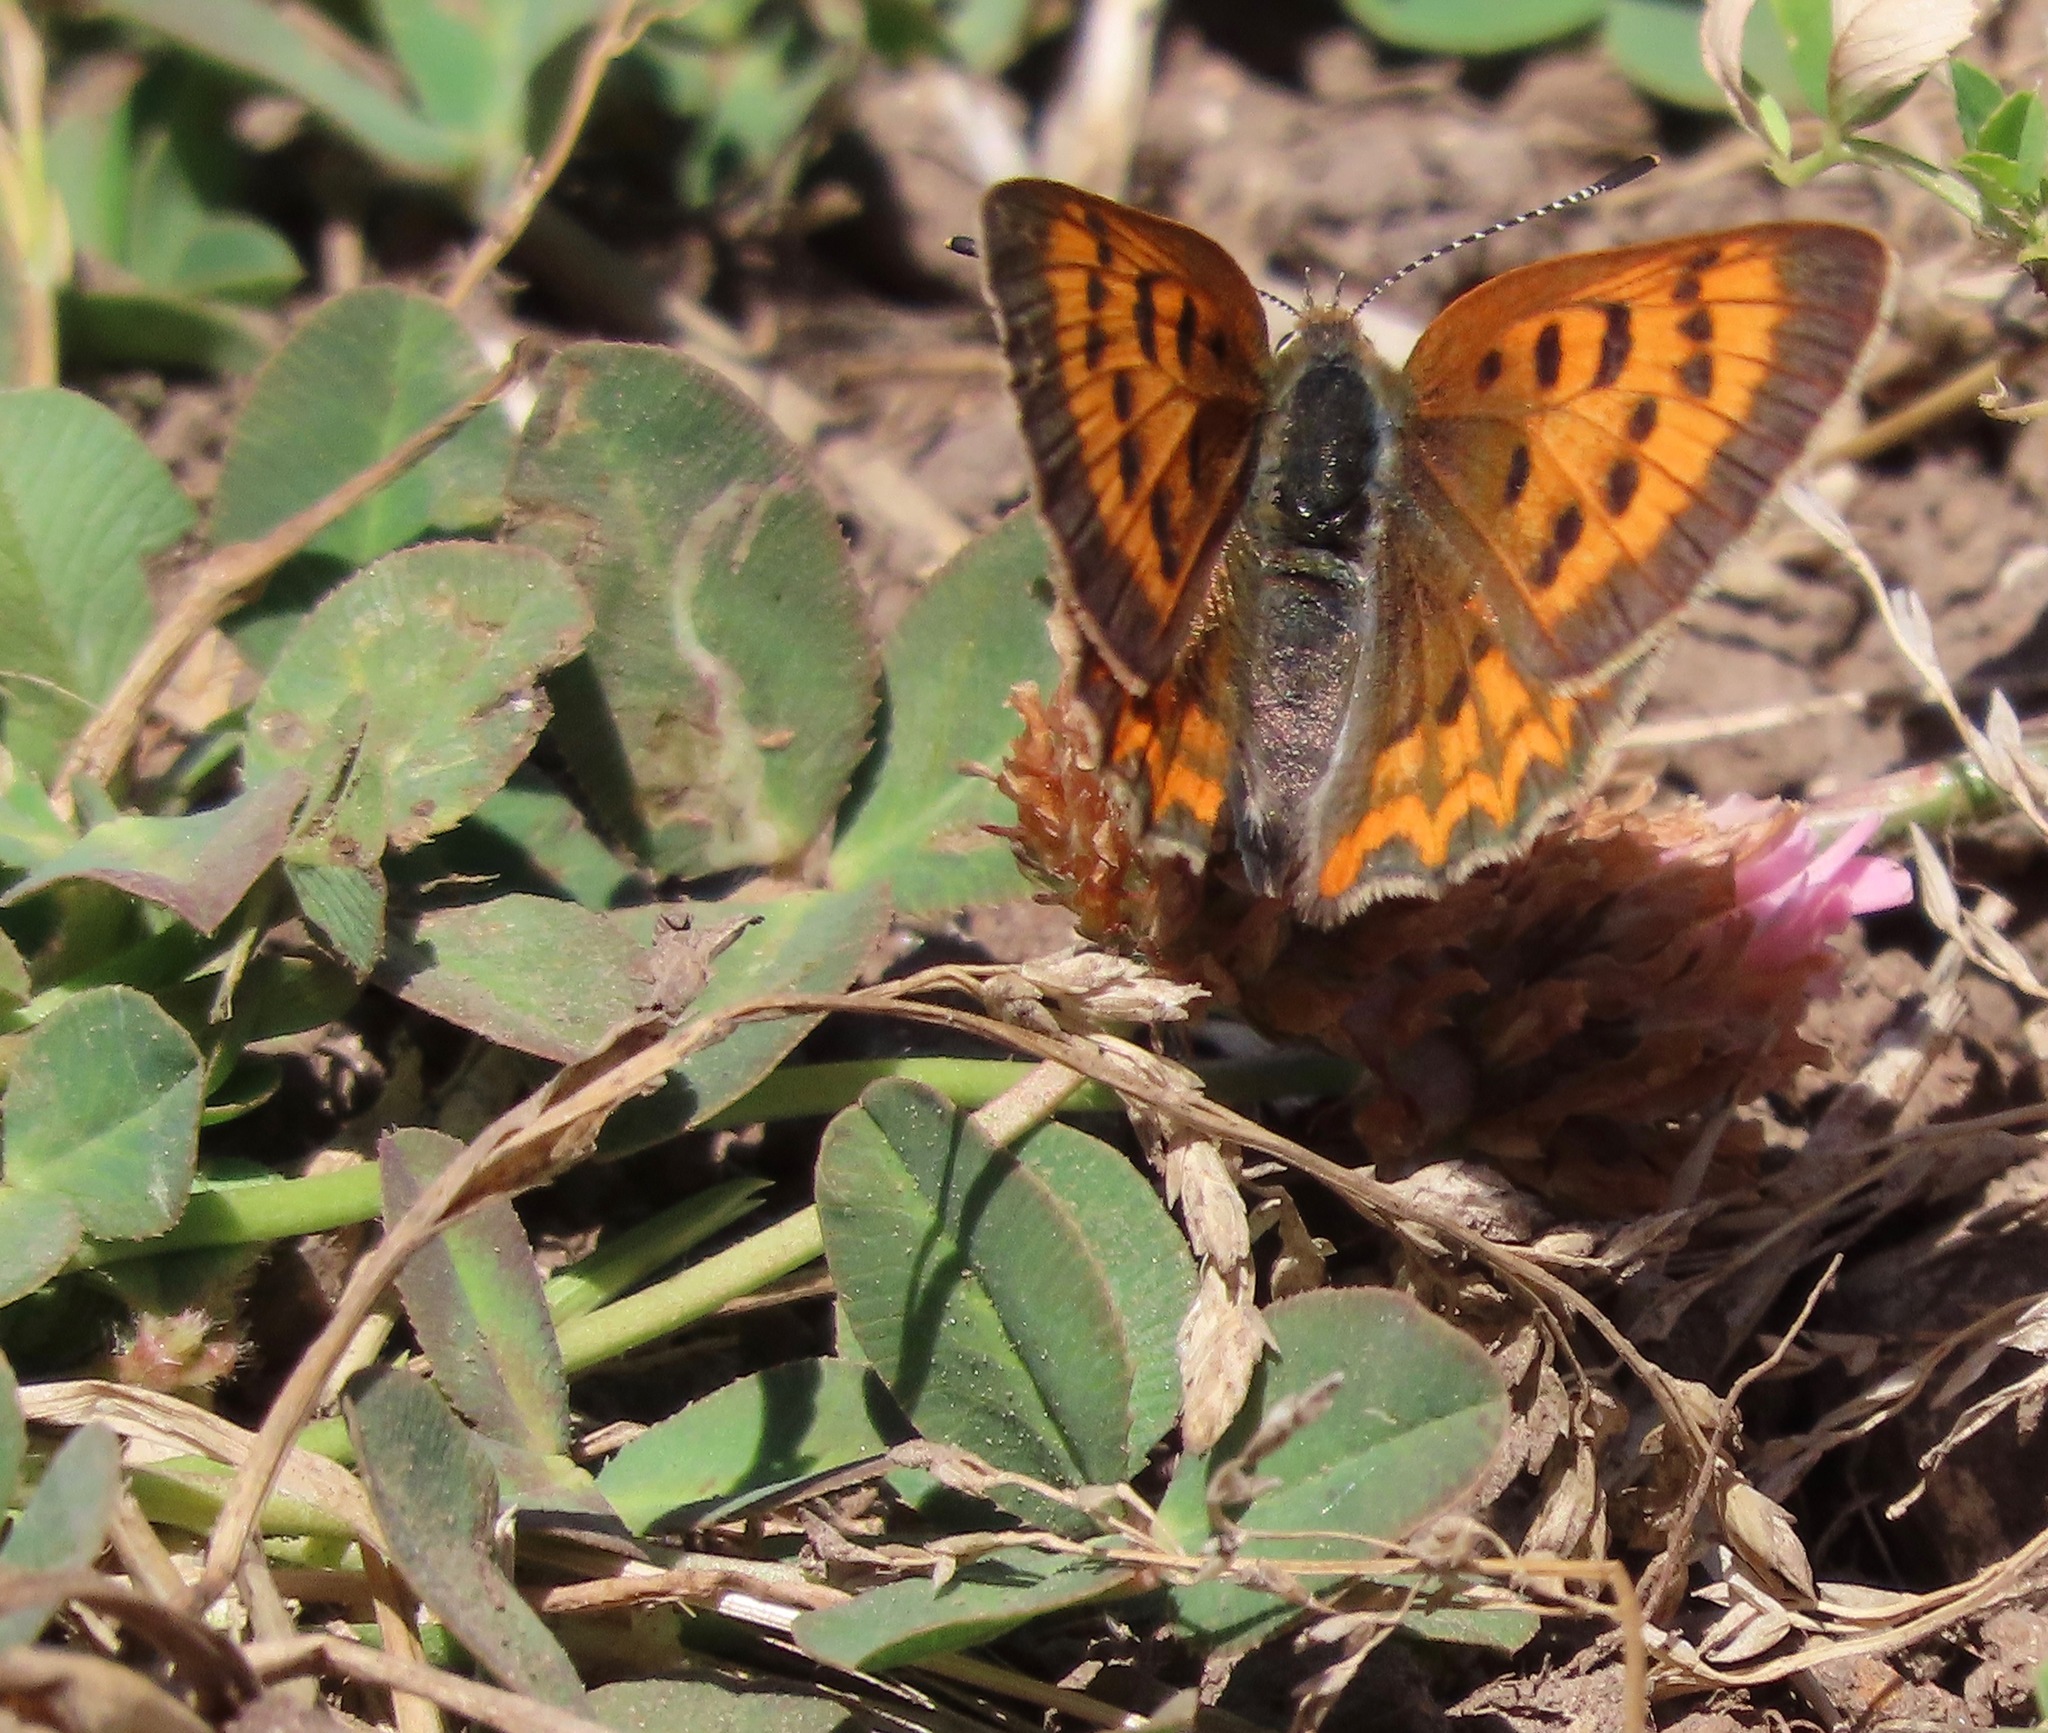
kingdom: Animalia
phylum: Arthropoda
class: Insecta
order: Lepidoptera
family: Lycaenidae
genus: Tharsalea
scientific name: Tharsalea helloides
